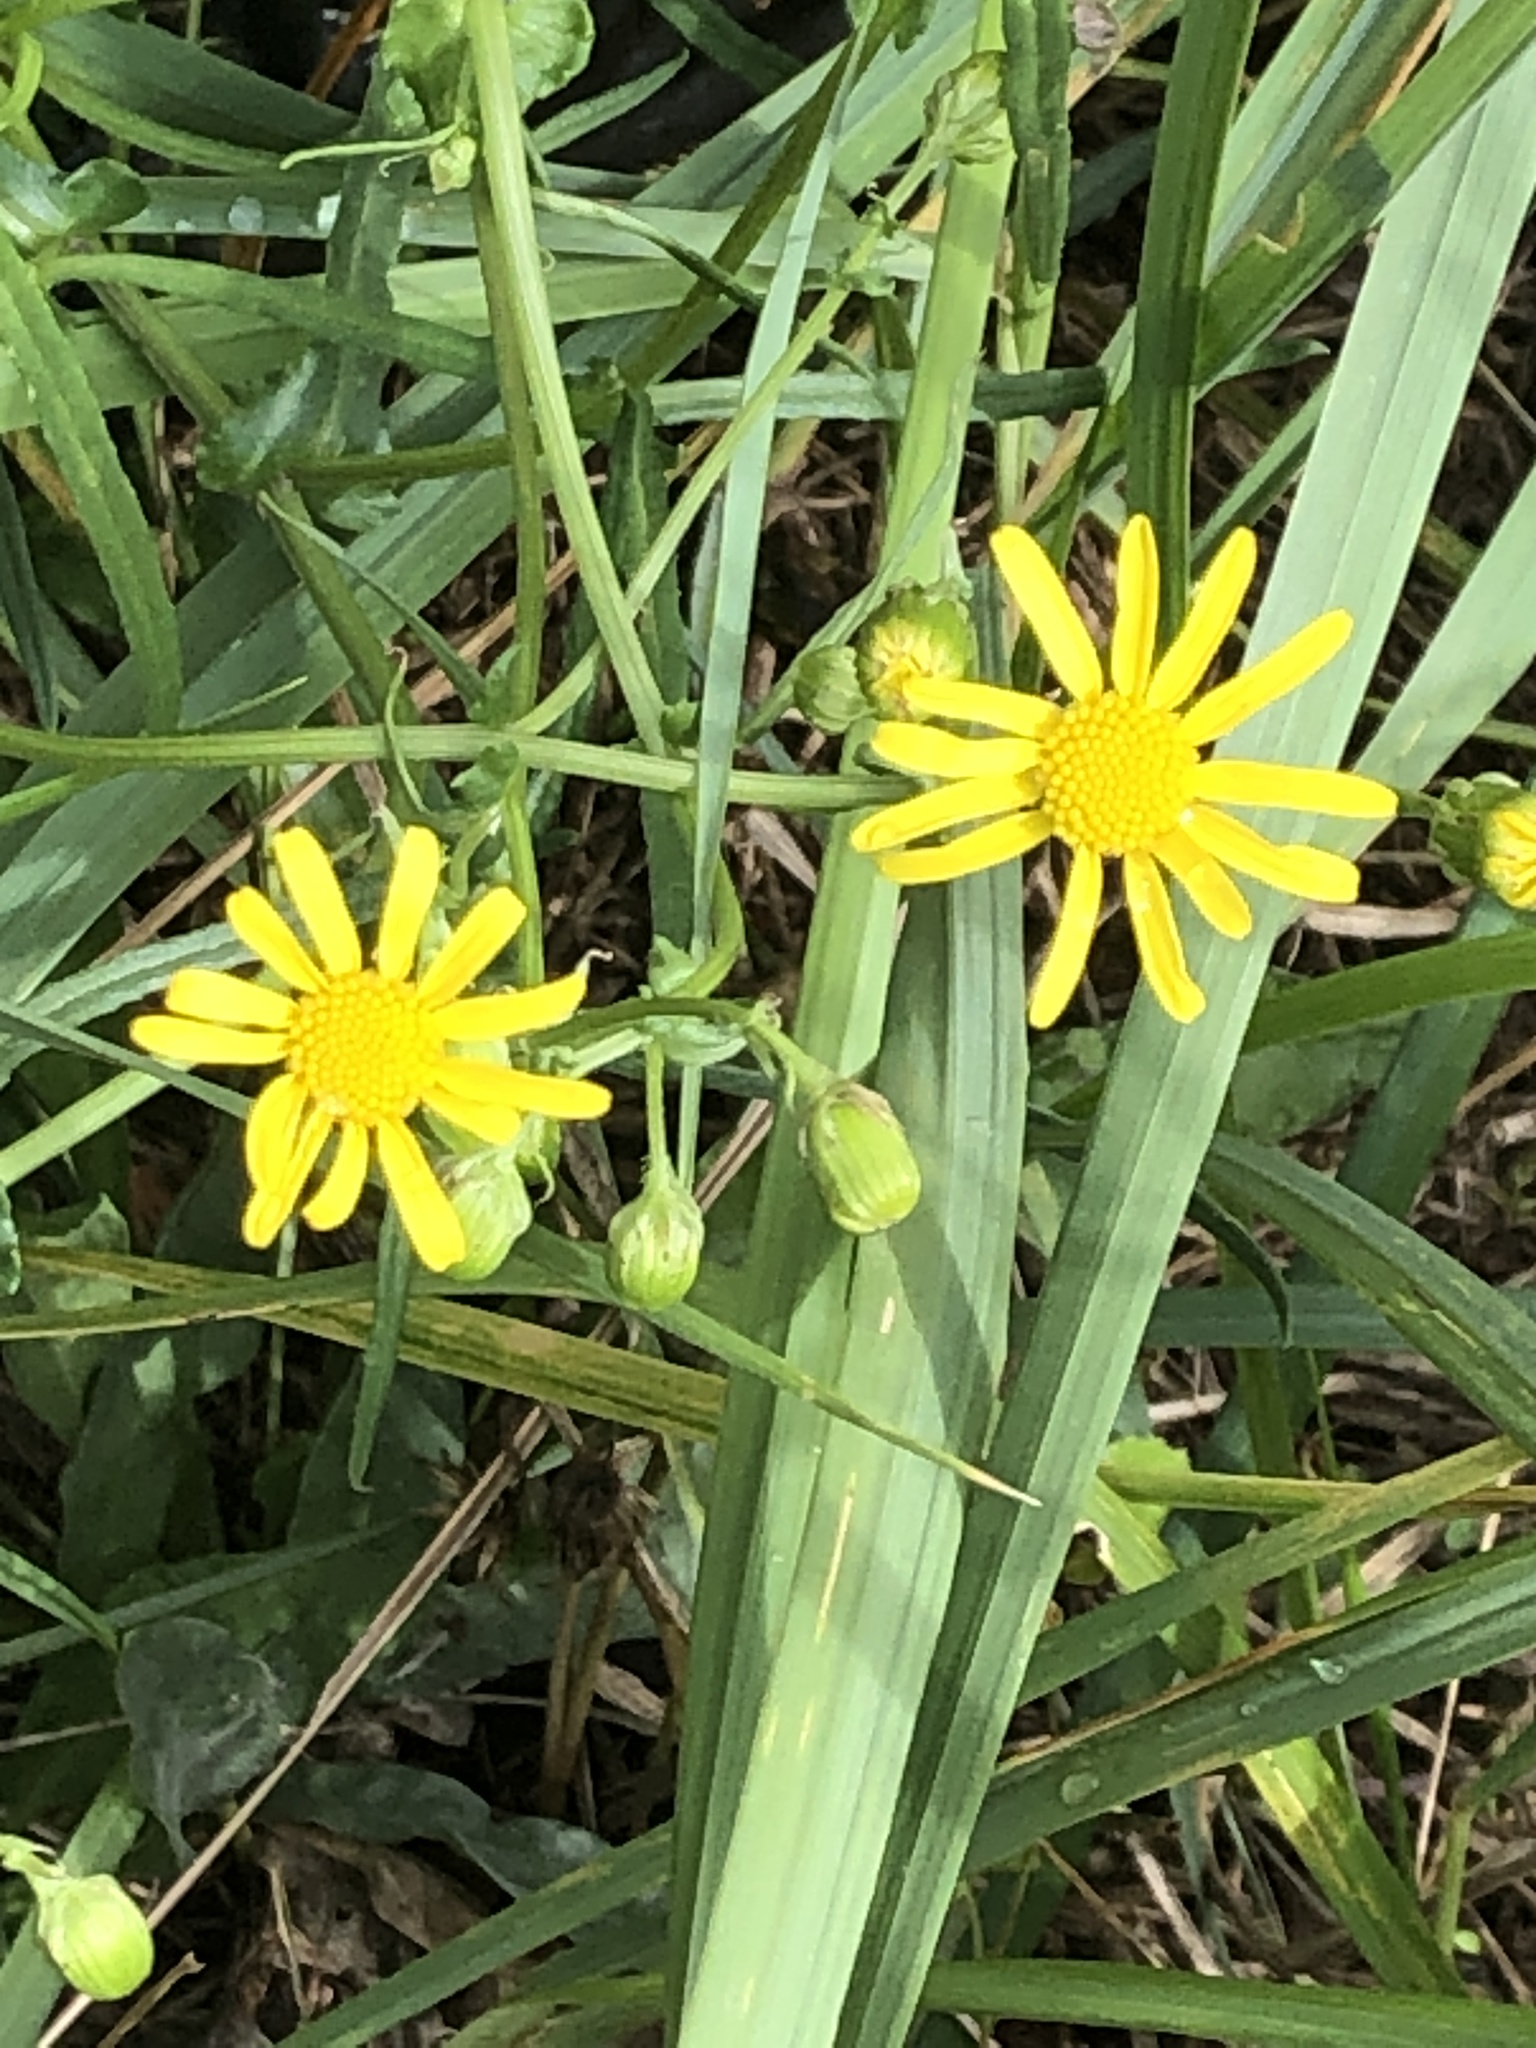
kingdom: Plantae
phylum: Tracheophyta
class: Magnoliopsida
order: Asterales
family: Asteraceae
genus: Senecio
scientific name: Senecio inaequidens
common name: Narrow-leaved ragwort
